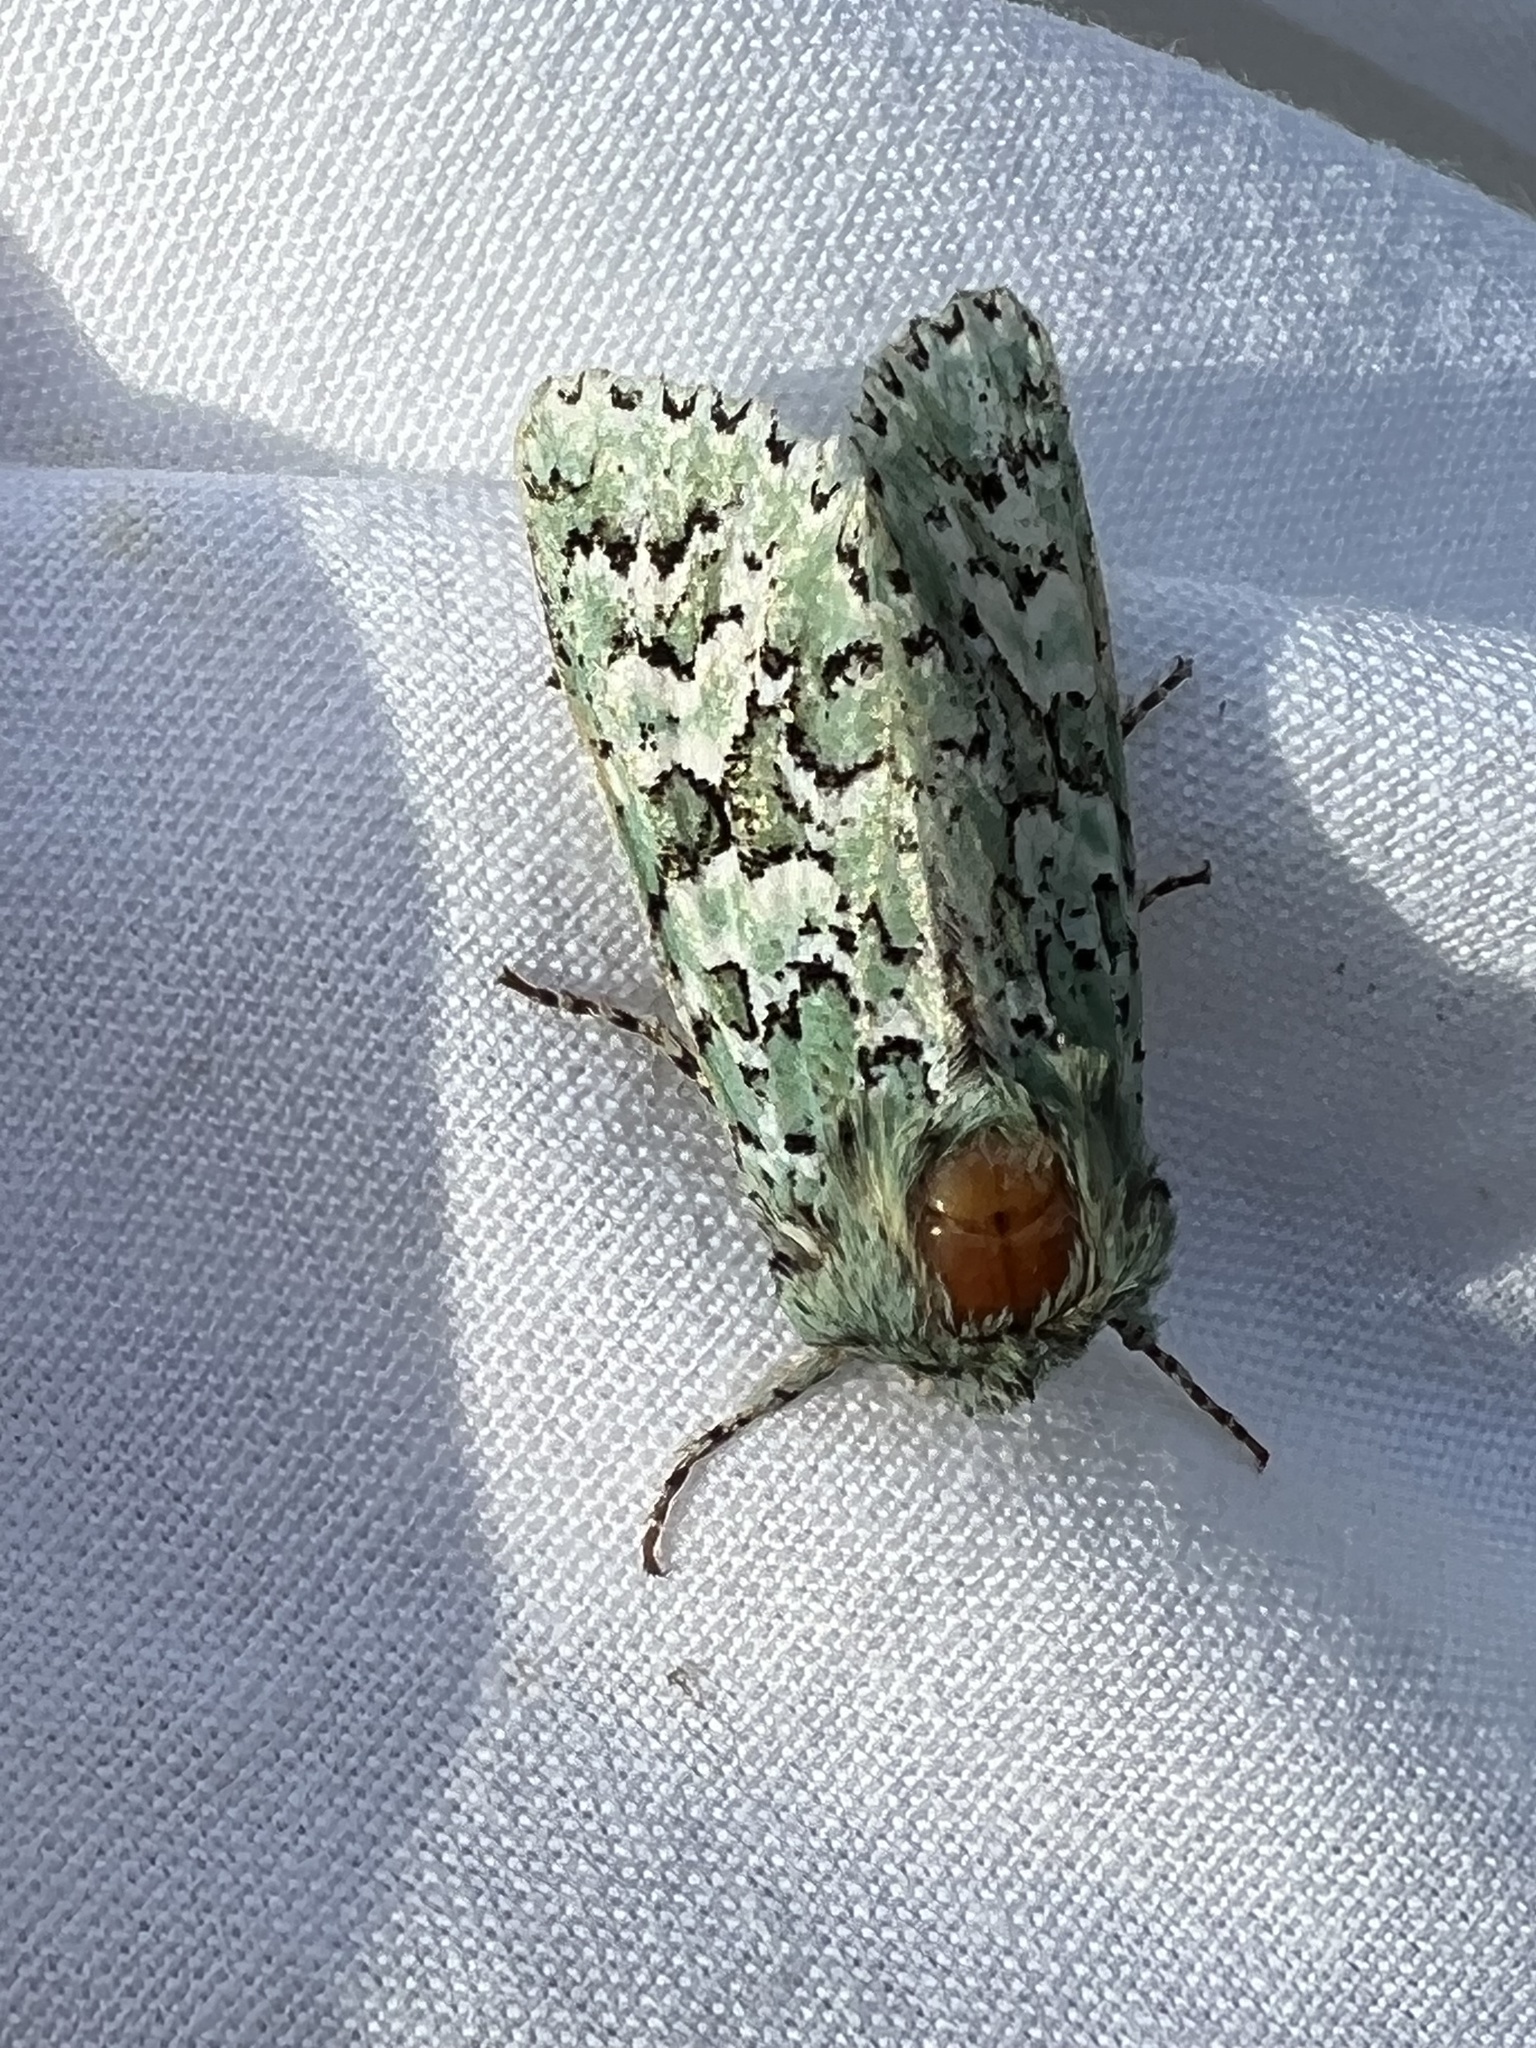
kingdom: Animalia
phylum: Arthropoda
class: Insecta
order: Lepidoptera
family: Noctuidae
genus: Feralia
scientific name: Feralia februalis
